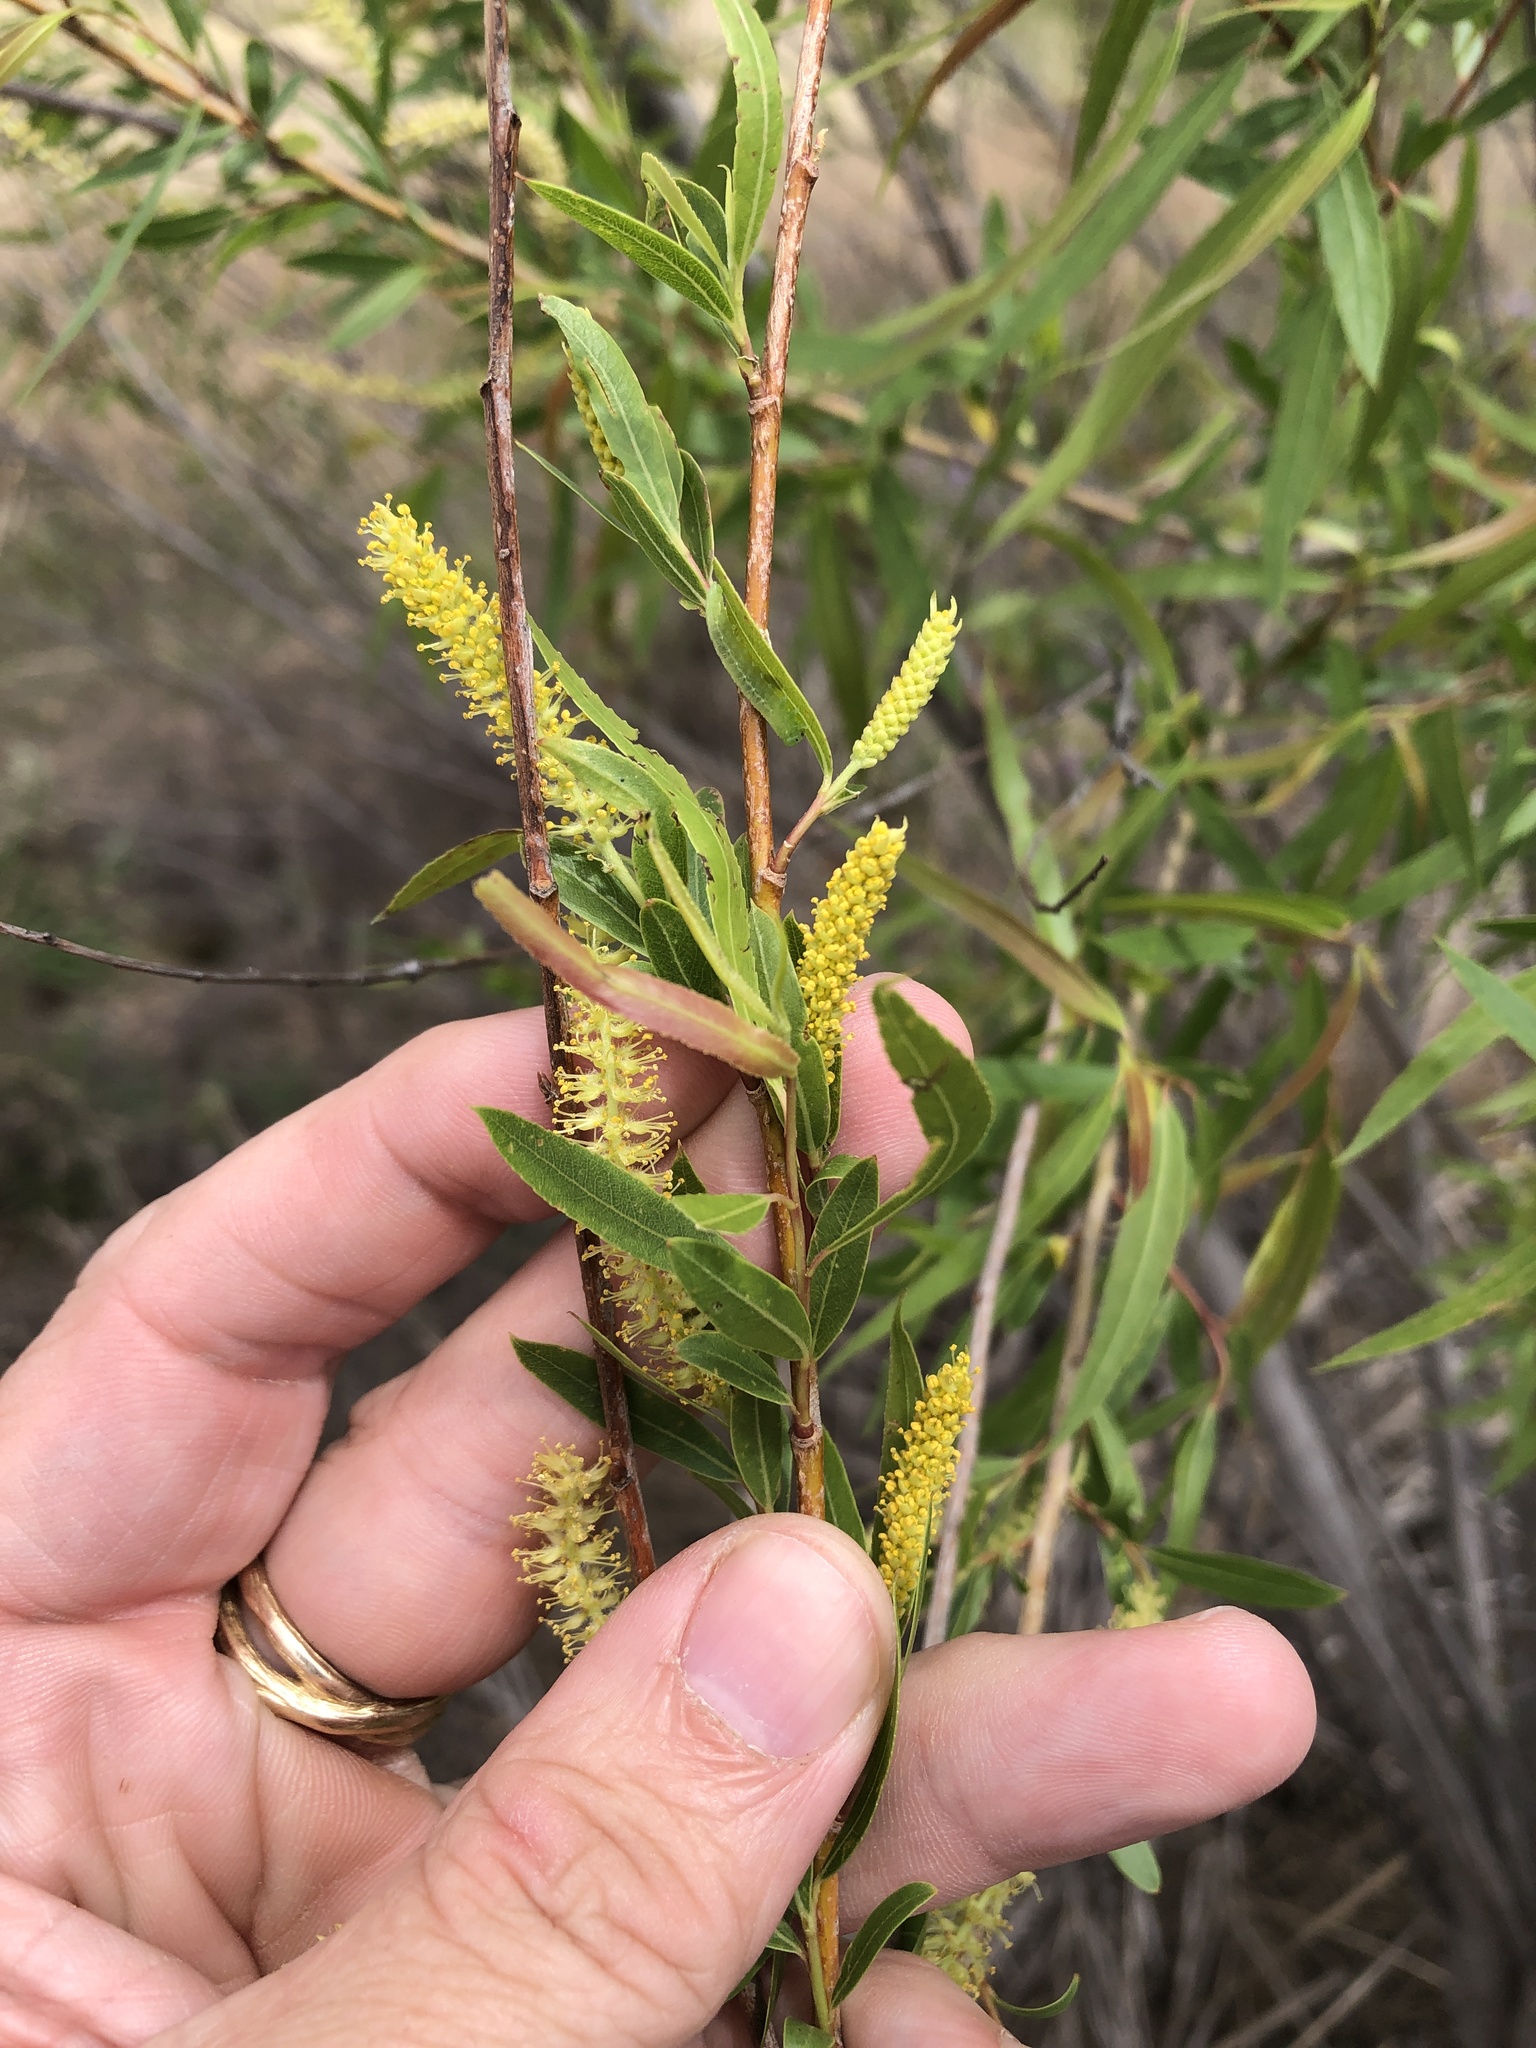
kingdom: Plantae
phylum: Tracheophyta
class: Magnoliopsida
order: Malpighiales
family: Salicaceae
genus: Salix
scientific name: Salix nigra
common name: Black willow
